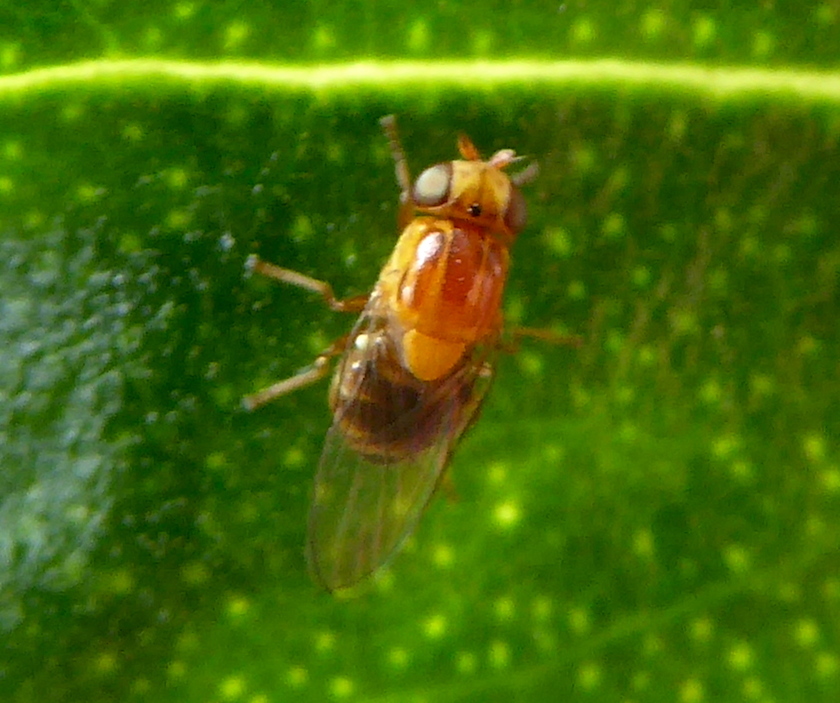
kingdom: Animalia
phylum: Arthropoda
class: Insecta
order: Diptera
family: Chloropidae
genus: Thaumatomyia
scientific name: Thaumatomyia rubida
